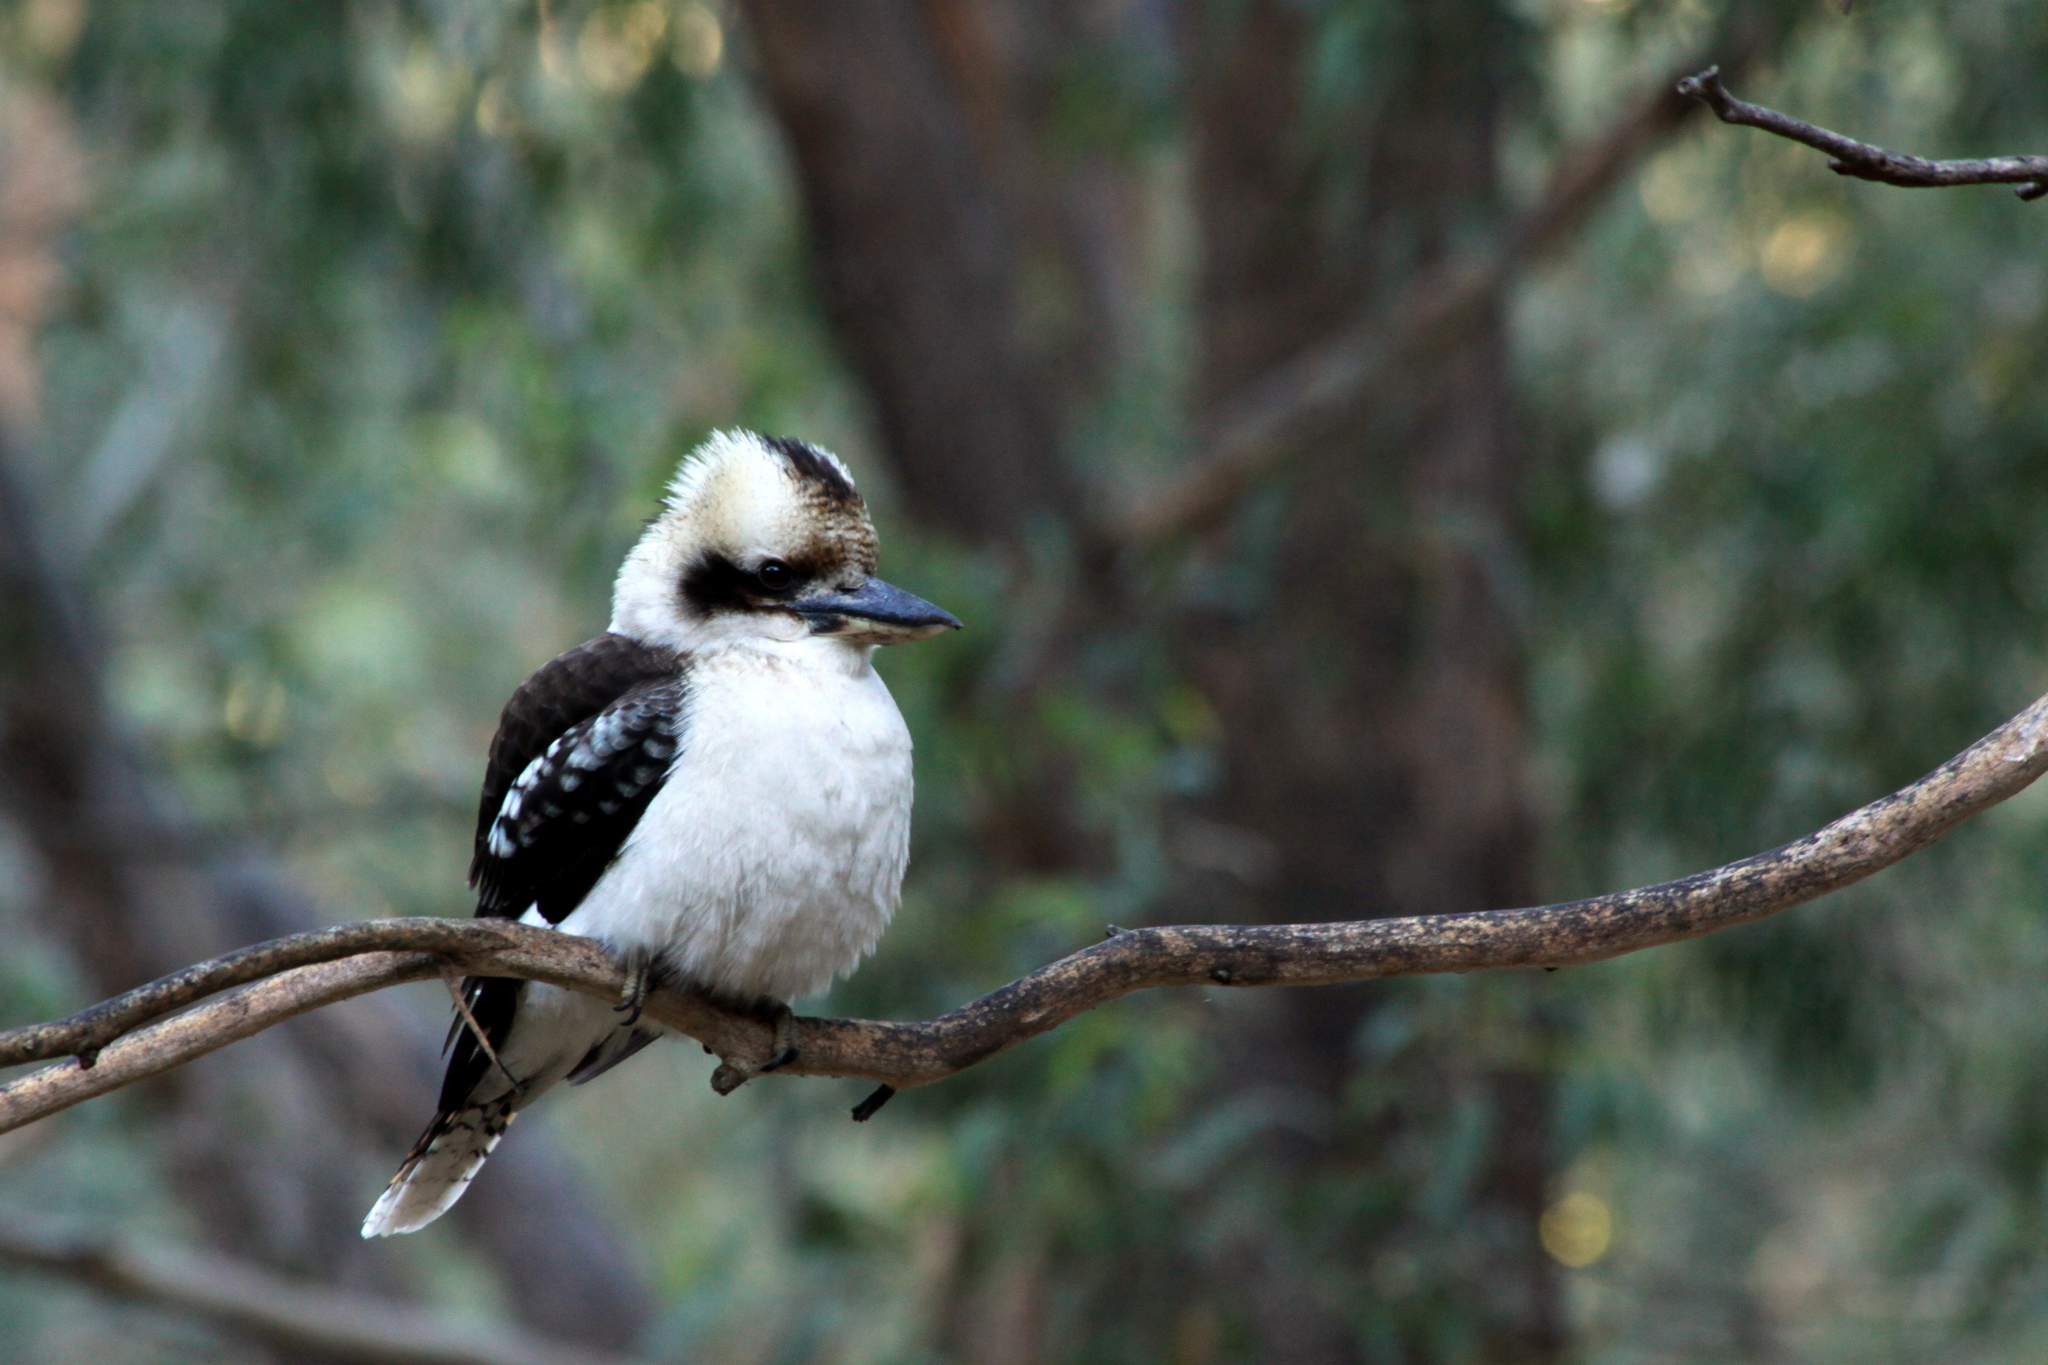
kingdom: Animalia
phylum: Chordata
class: Aves
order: Coraciiformes
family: Alcedinidae
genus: Dacelo
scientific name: Dacelo novaeguineae
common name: Laughing kookaburra
